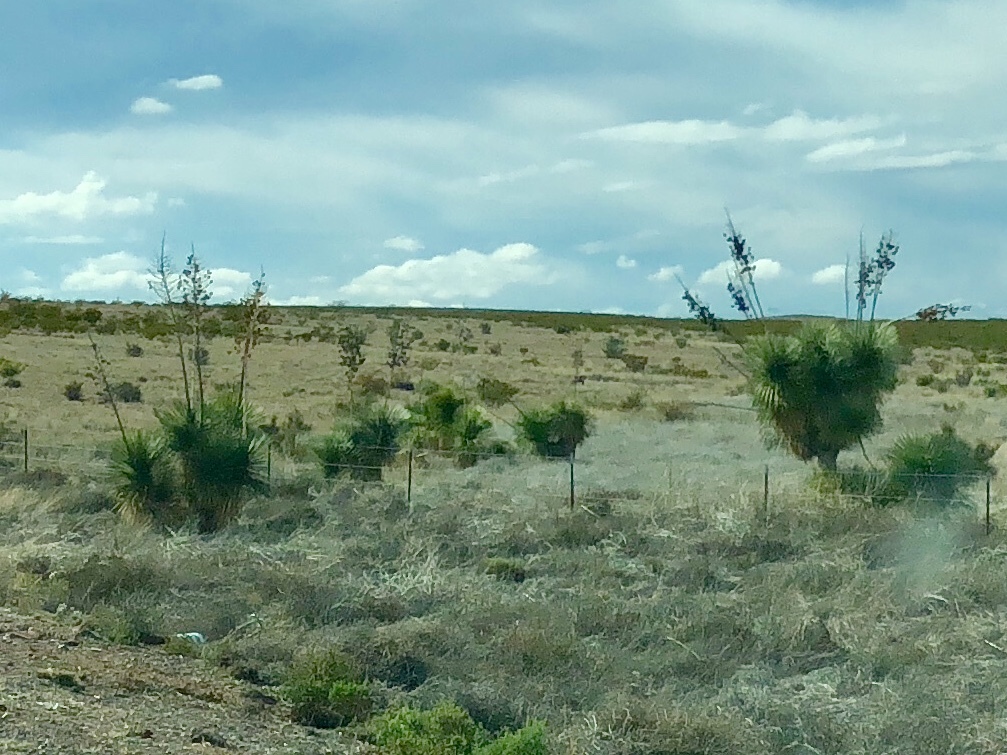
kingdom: Plantae
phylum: Tracheophyta
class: Liliopsida
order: Asparagales
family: Asparagaceae
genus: Yucca
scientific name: Yucca elata
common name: Palmella
